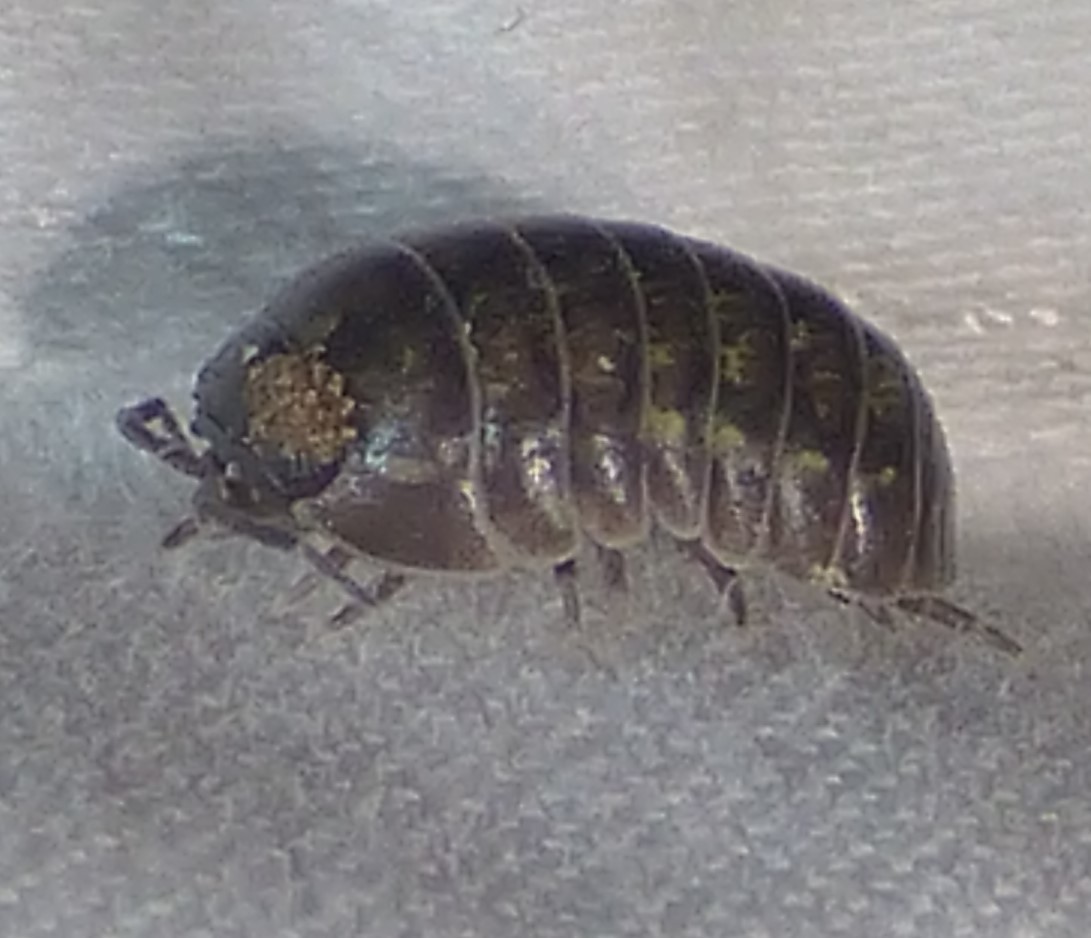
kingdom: Animalia
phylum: Arthropoda
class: Malacostraca
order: Isopoda
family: Armadillidiidae
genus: Armadillidium
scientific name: Armadillidium vulgare
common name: Common pill woodlouse
